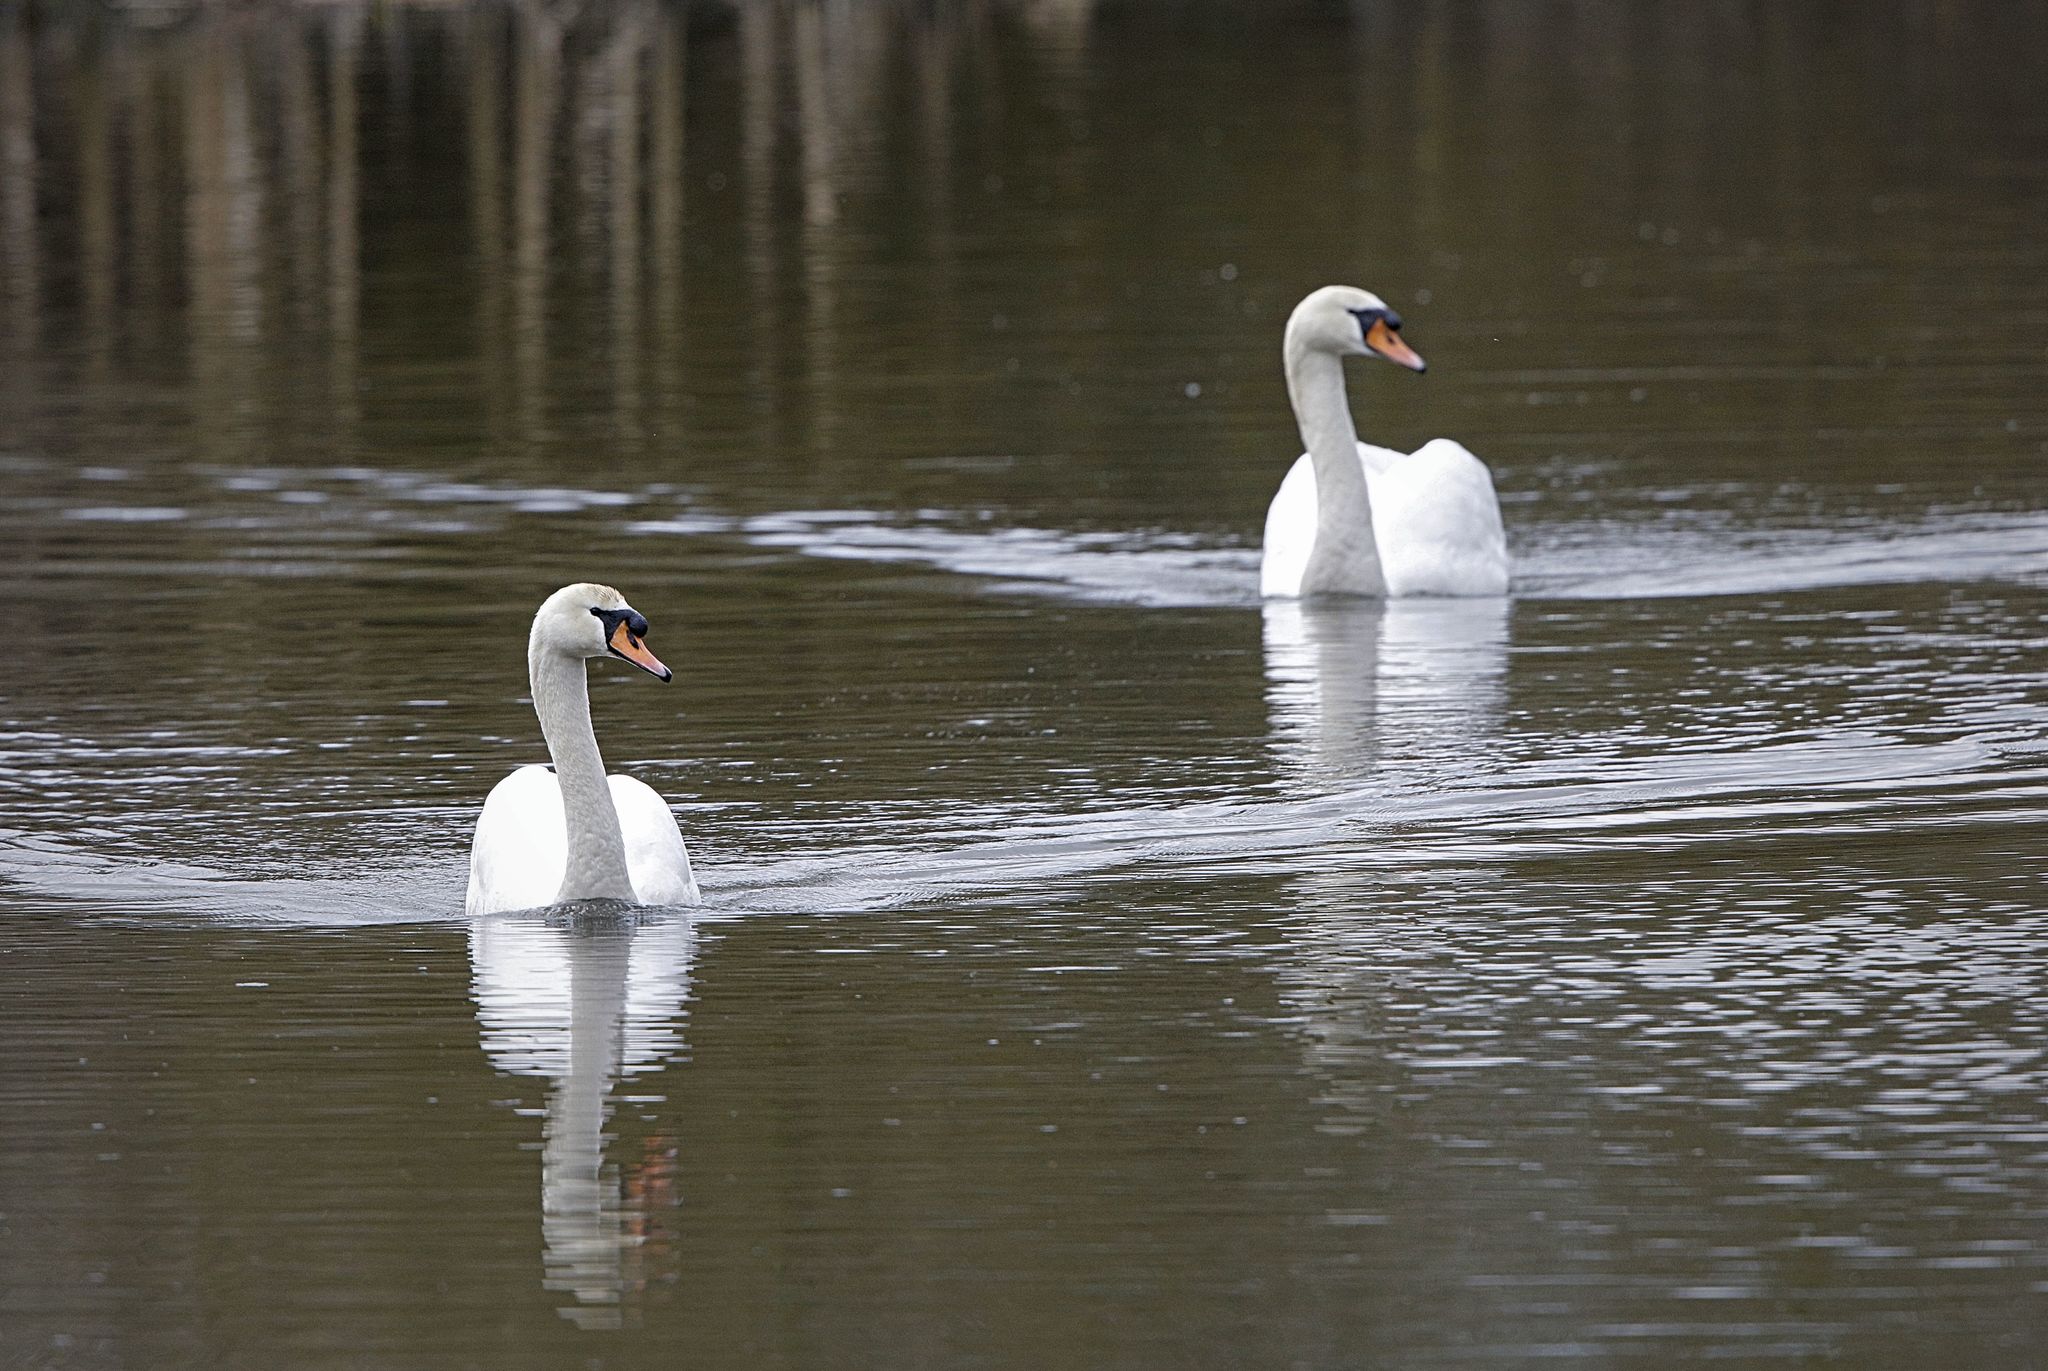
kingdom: Animalia
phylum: Chordata
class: Aves
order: Anseriformes
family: Anatidae
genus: Cygnus
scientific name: Cygnus olor
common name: Mute swan
